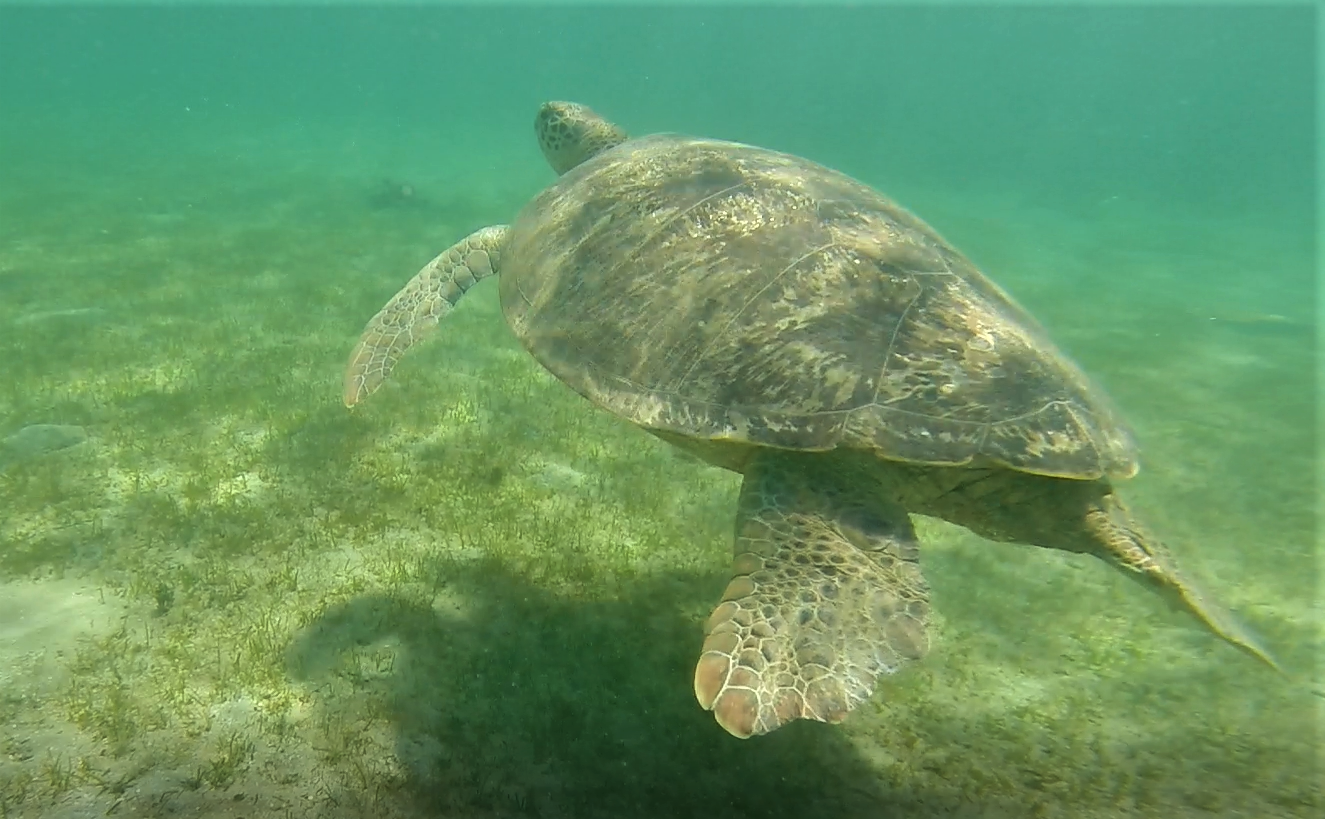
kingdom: Animalia
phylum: Chordata
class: Testudines
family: Cheloniidae
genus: Chelonia
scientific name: Chelonia mydas
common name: Green turtle
